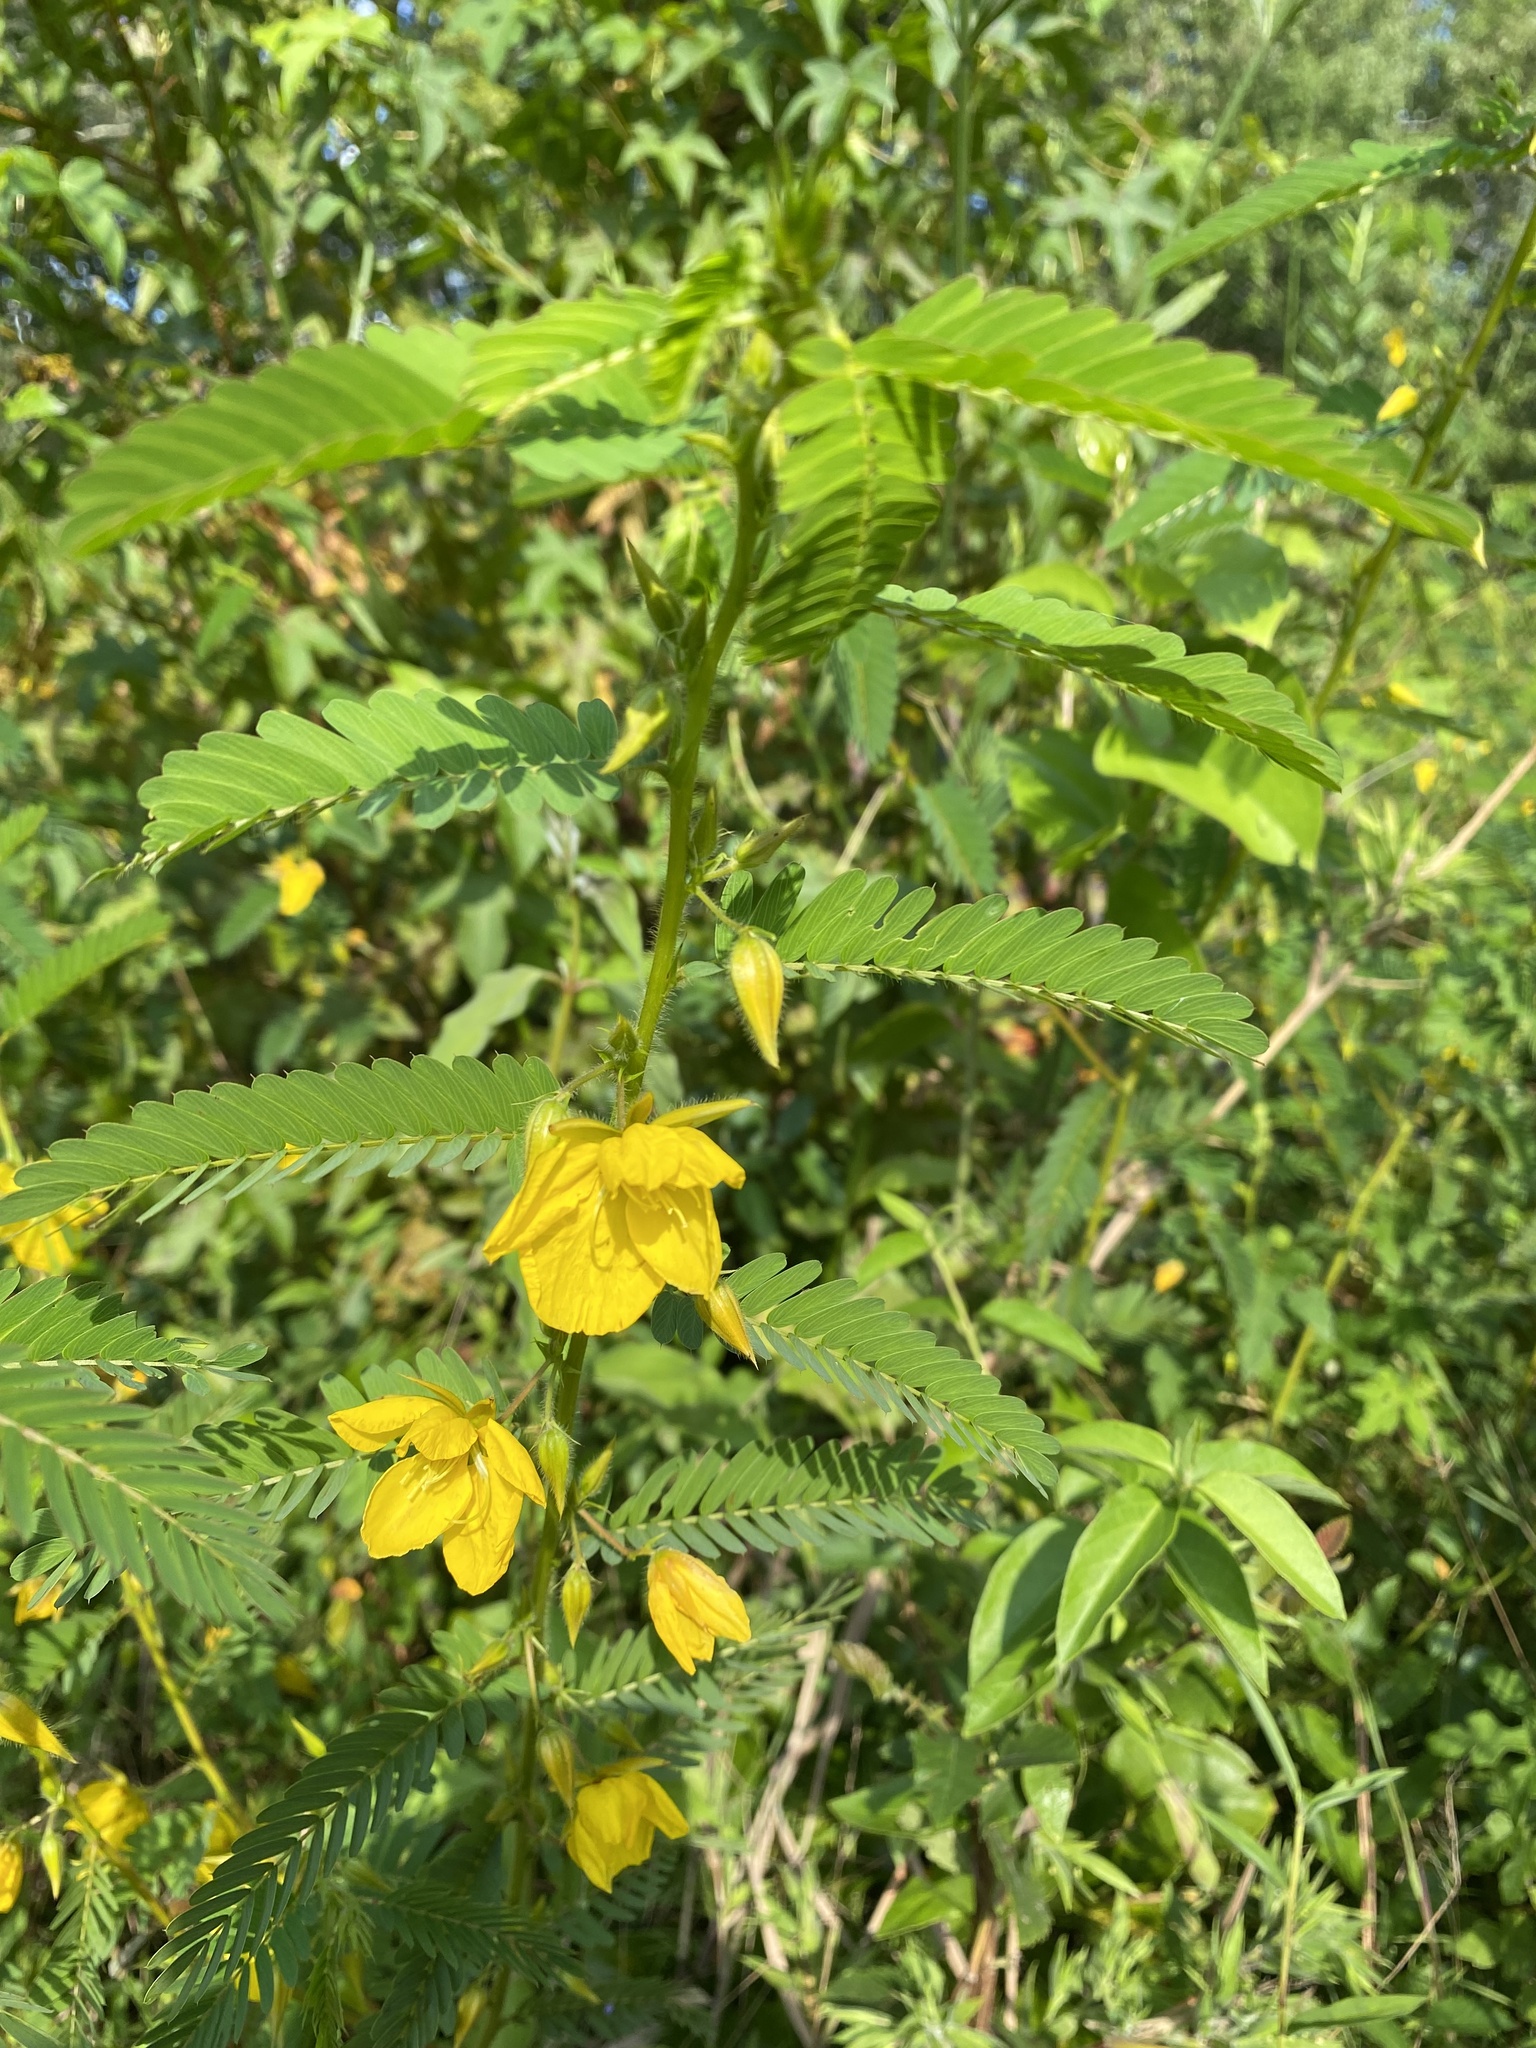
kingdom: Plantae
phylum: Tracheophyta
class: Magnoliopsida
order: Fabales
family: Fabaceae
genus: Chamaecrista
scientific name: Chamaecrista fasciculata
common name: Golden cassia
